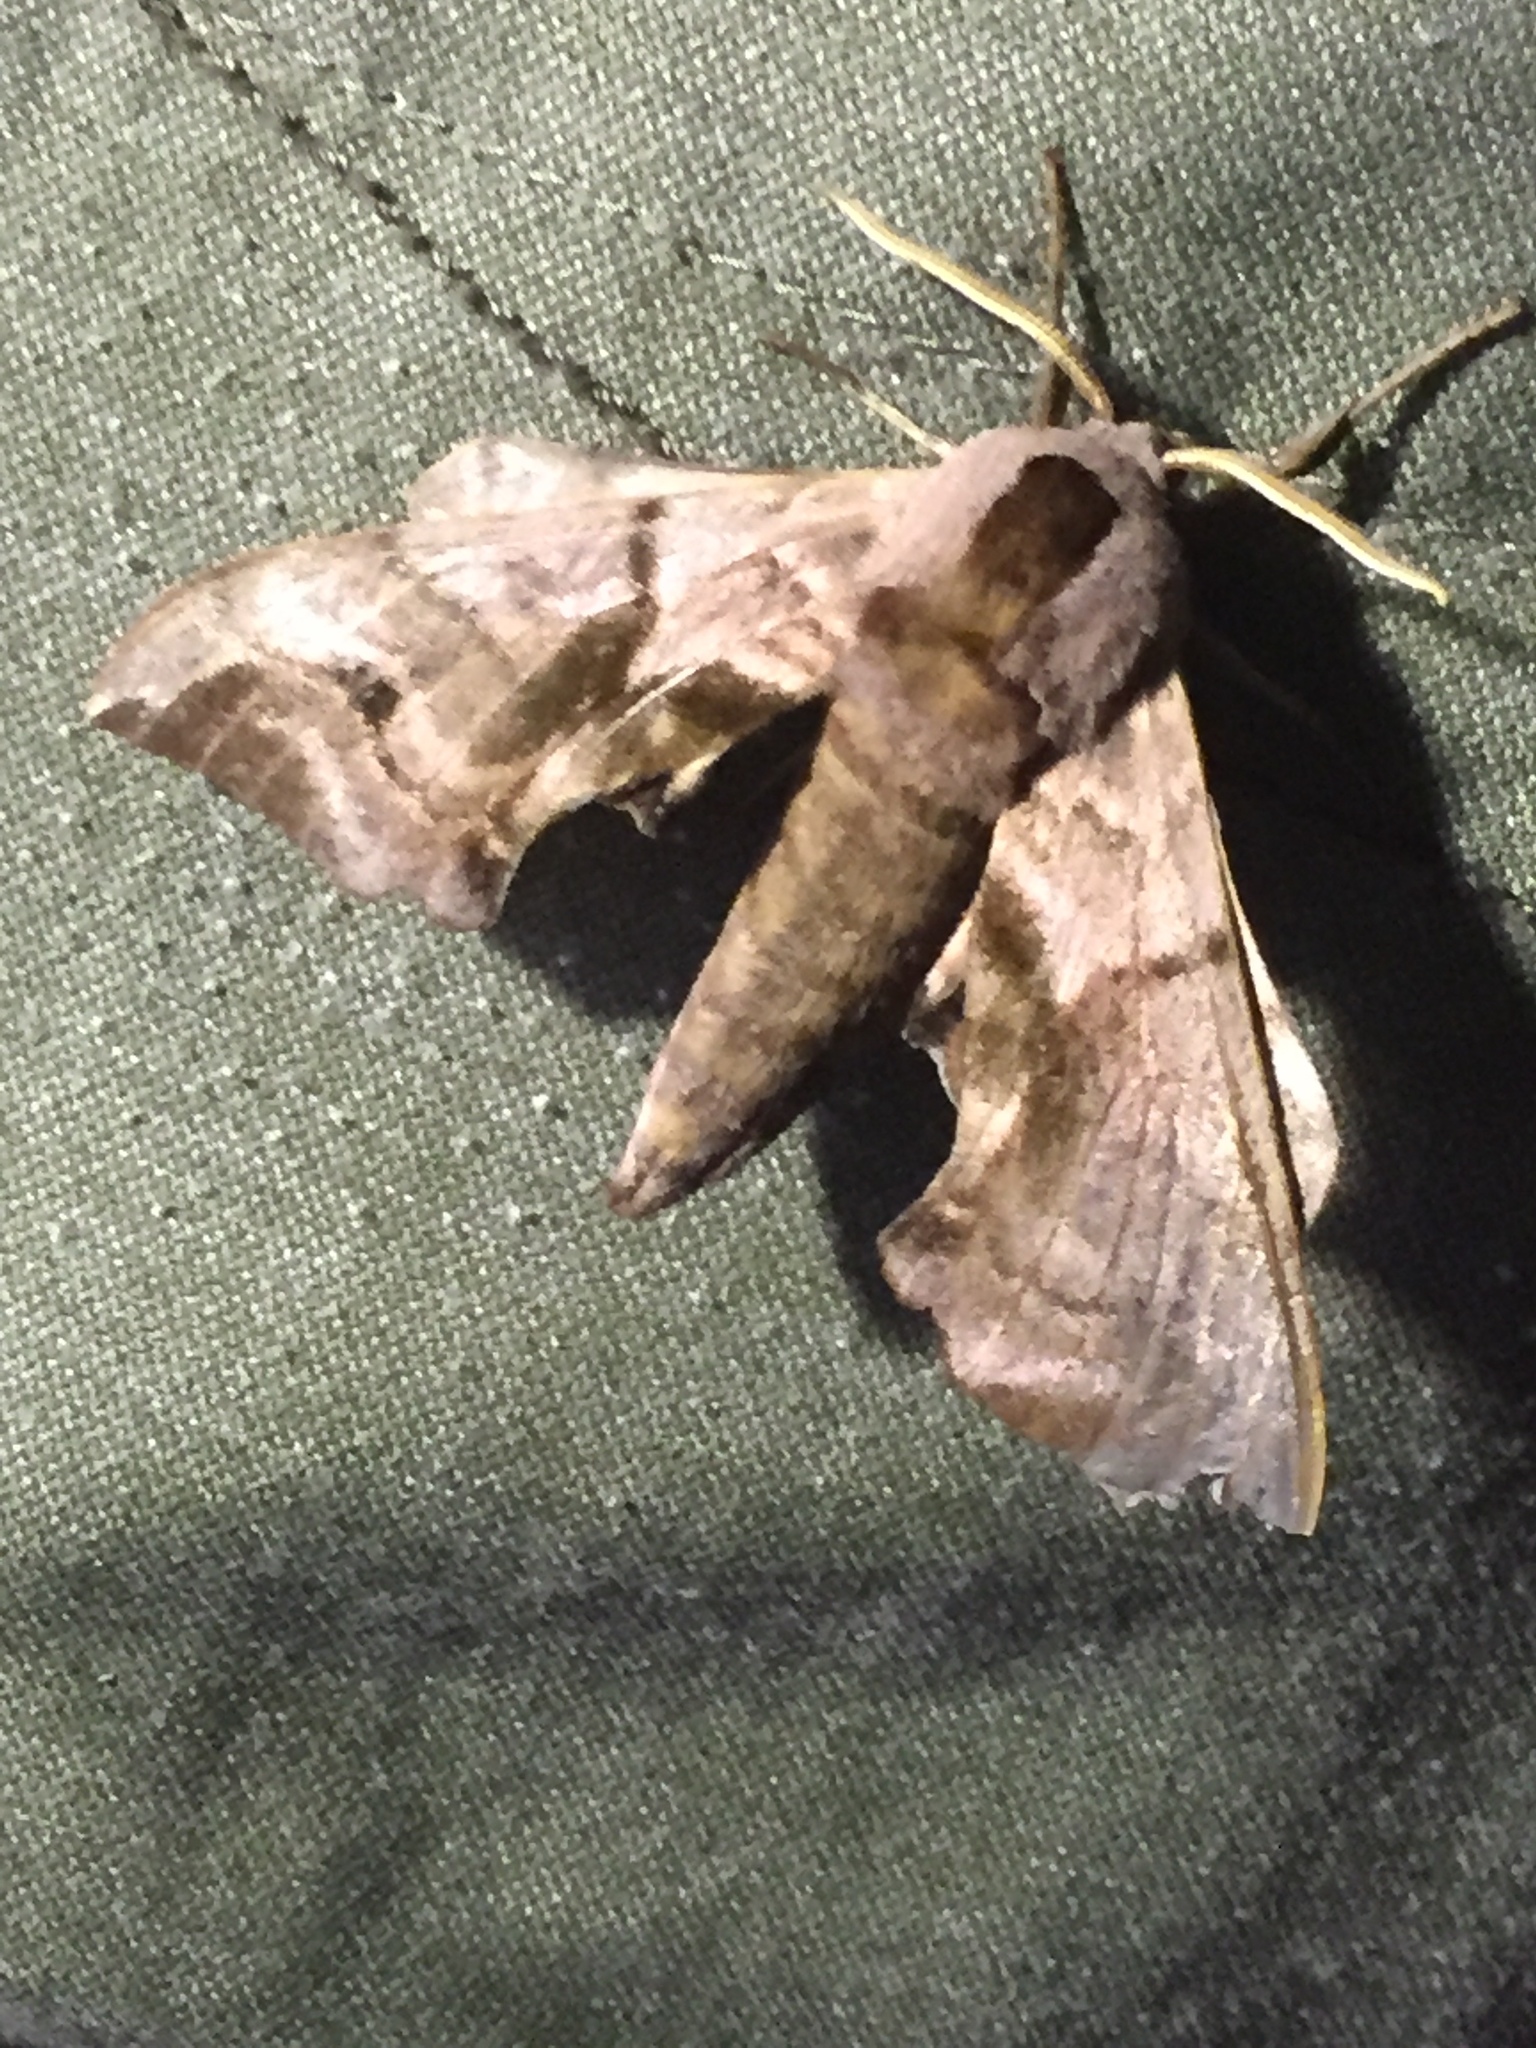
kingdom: Animalia
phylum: Arthropoda
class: Insecta
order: Lepidoptera
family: Sphingidae
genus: Smerinthus
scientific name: Smerinthus ocellata
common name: Eyed hawk-moth
